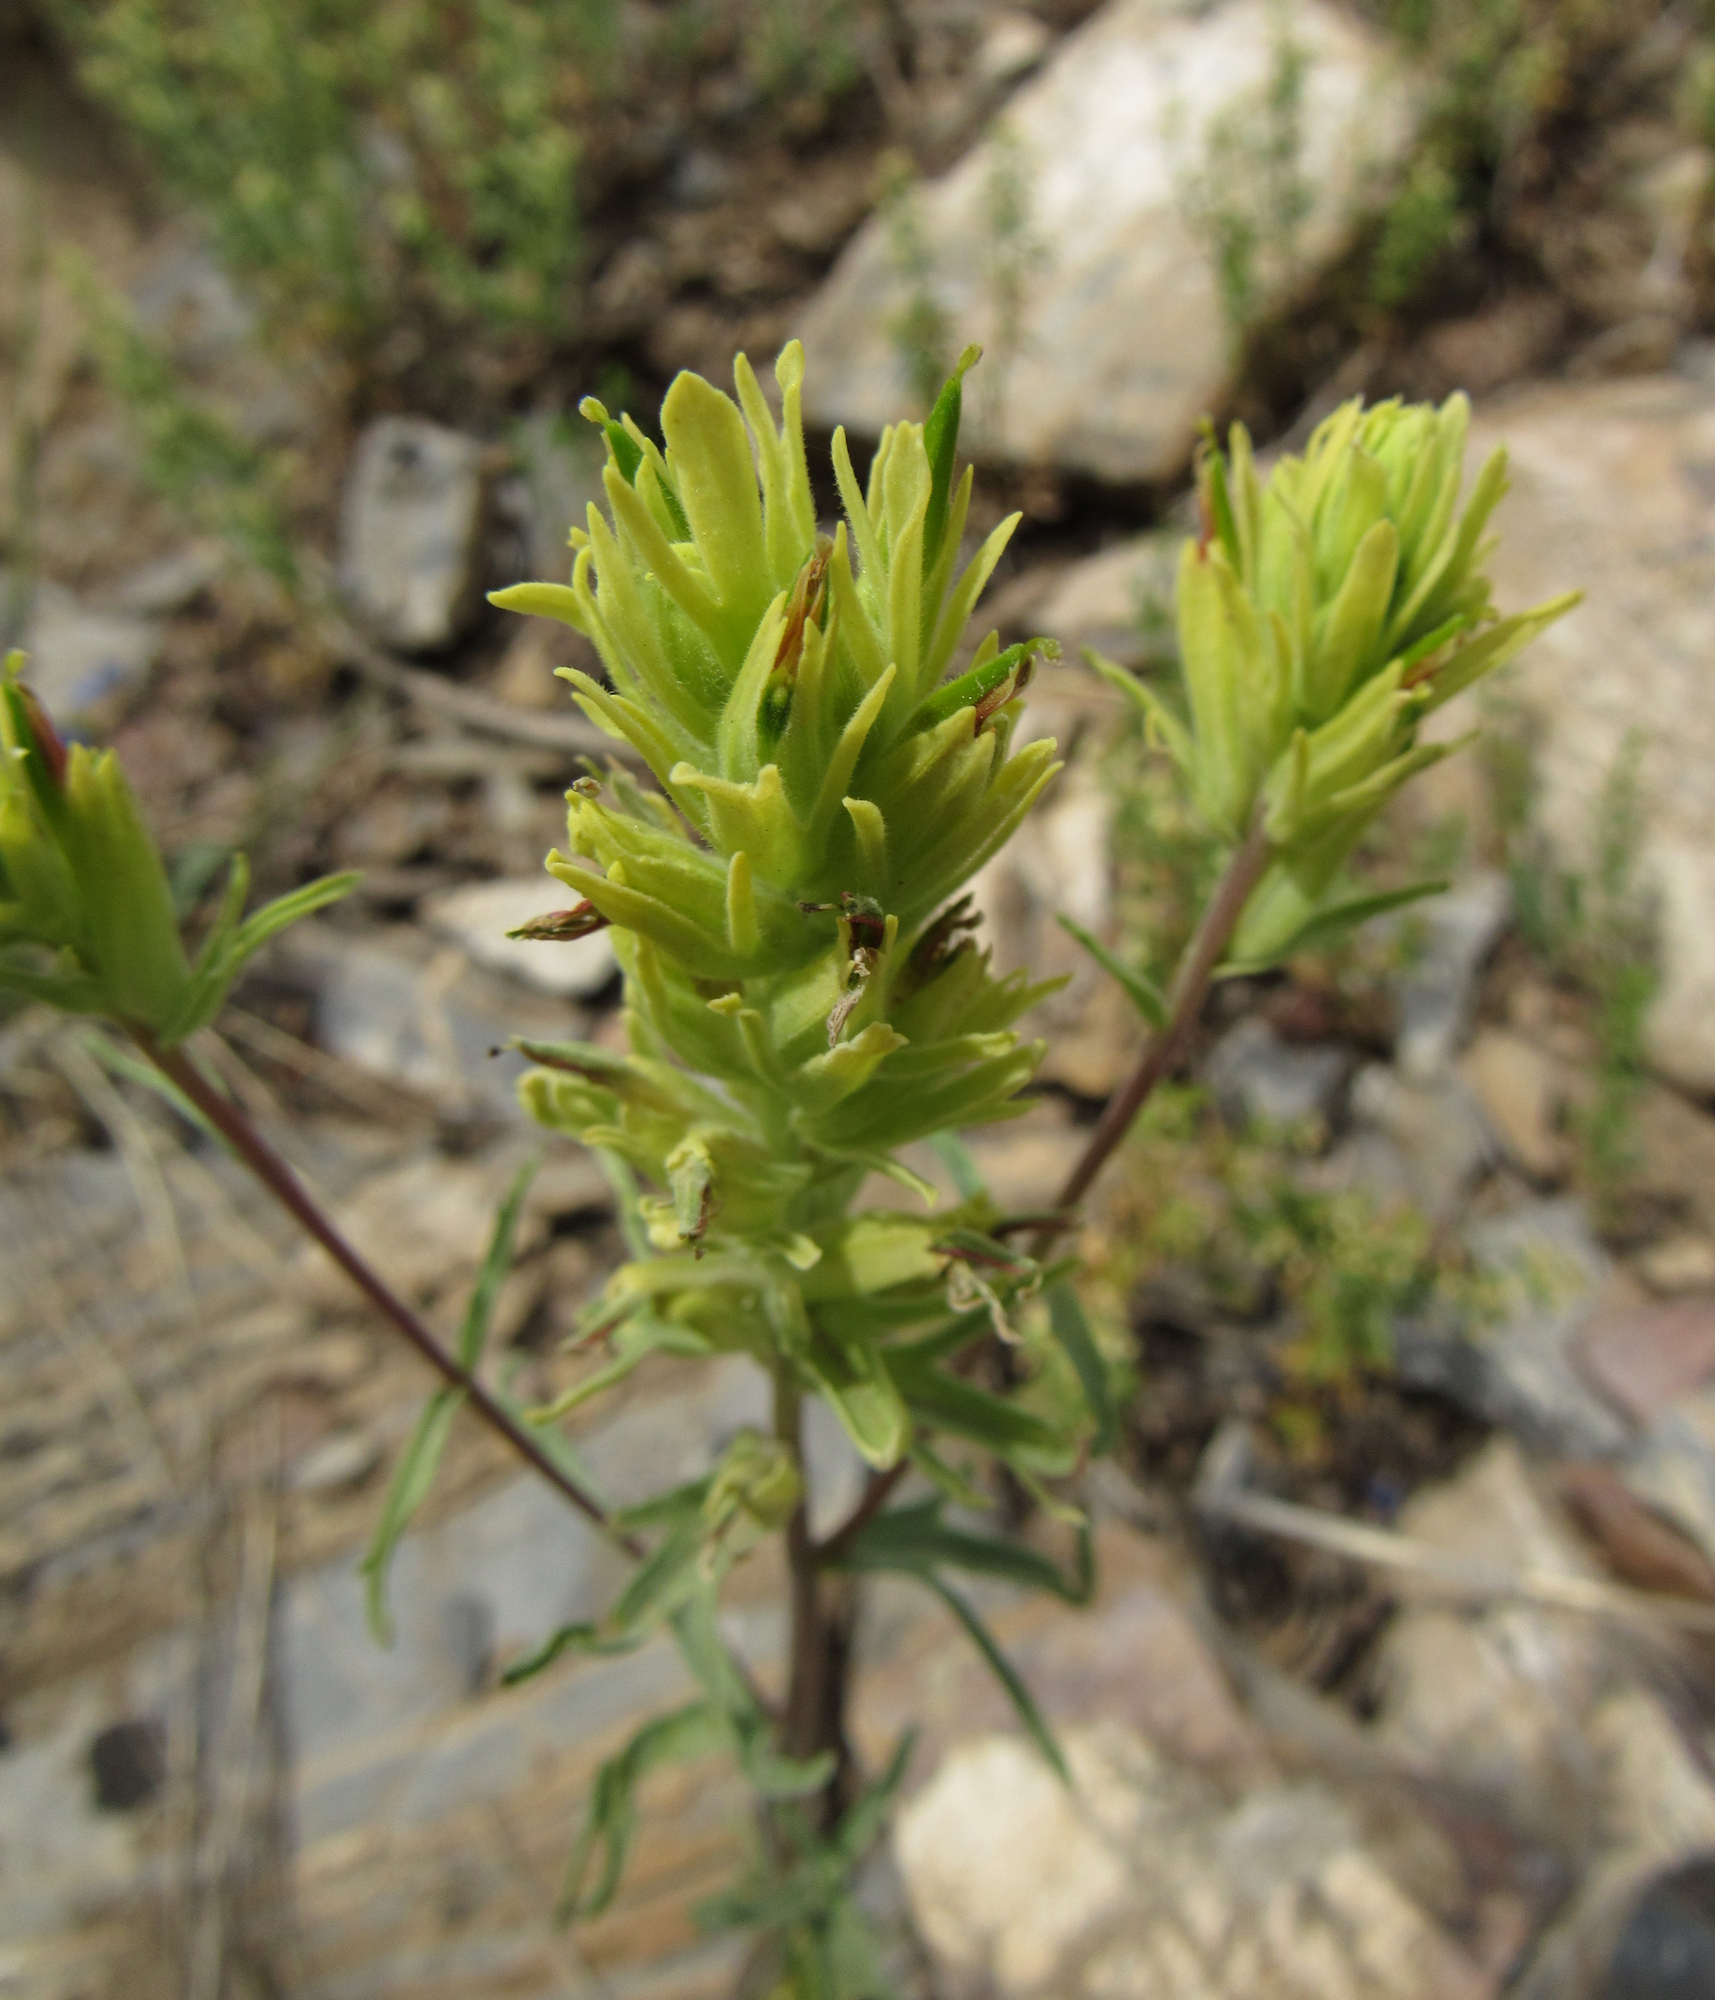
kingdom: Plantae
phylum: Tracheophyta
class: Magnoliopsida
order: Lamiales
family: Orobanchaceae
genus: Castilleja
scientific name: Castilleja flava
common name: Yellow paintbrush
